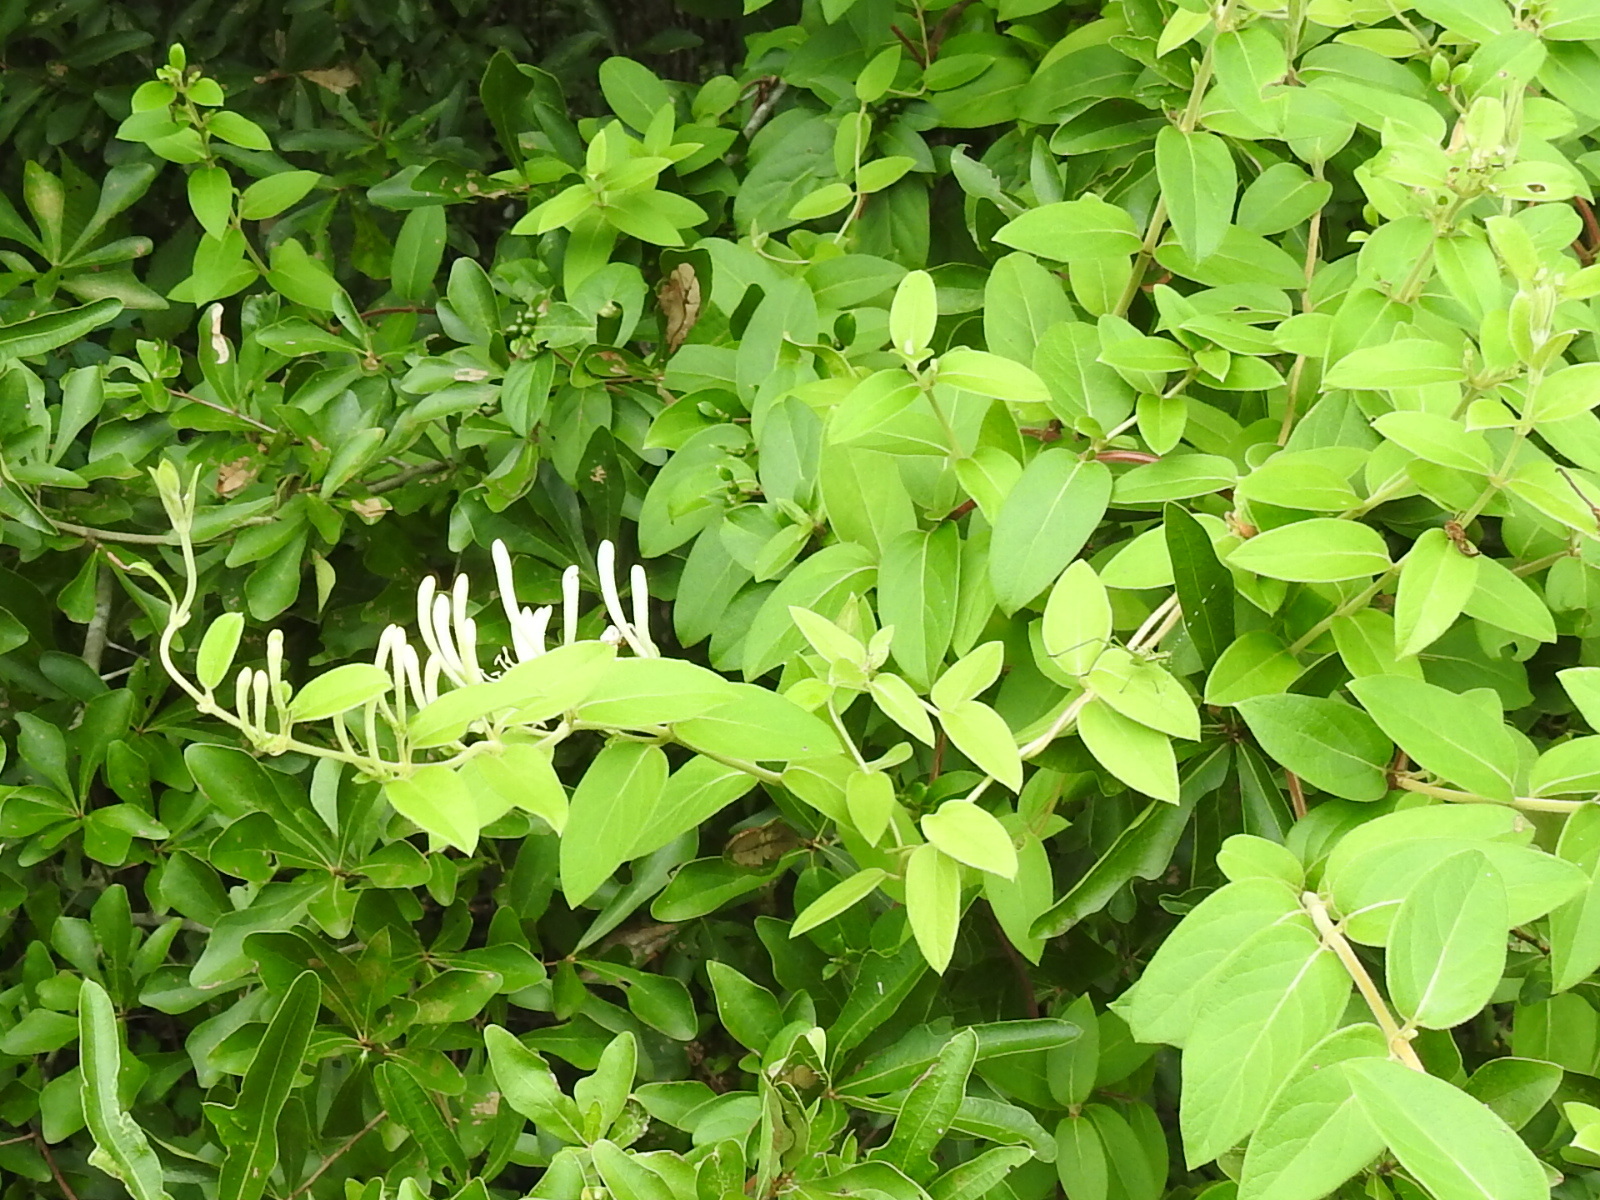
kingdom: Plantae
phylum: Tracheophyta
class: Magnoliopsida
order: Dipsacales
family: Caprifoliaceae
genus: Lonicera
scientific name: Lonicera japonica
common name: Japanese honeysuckle
